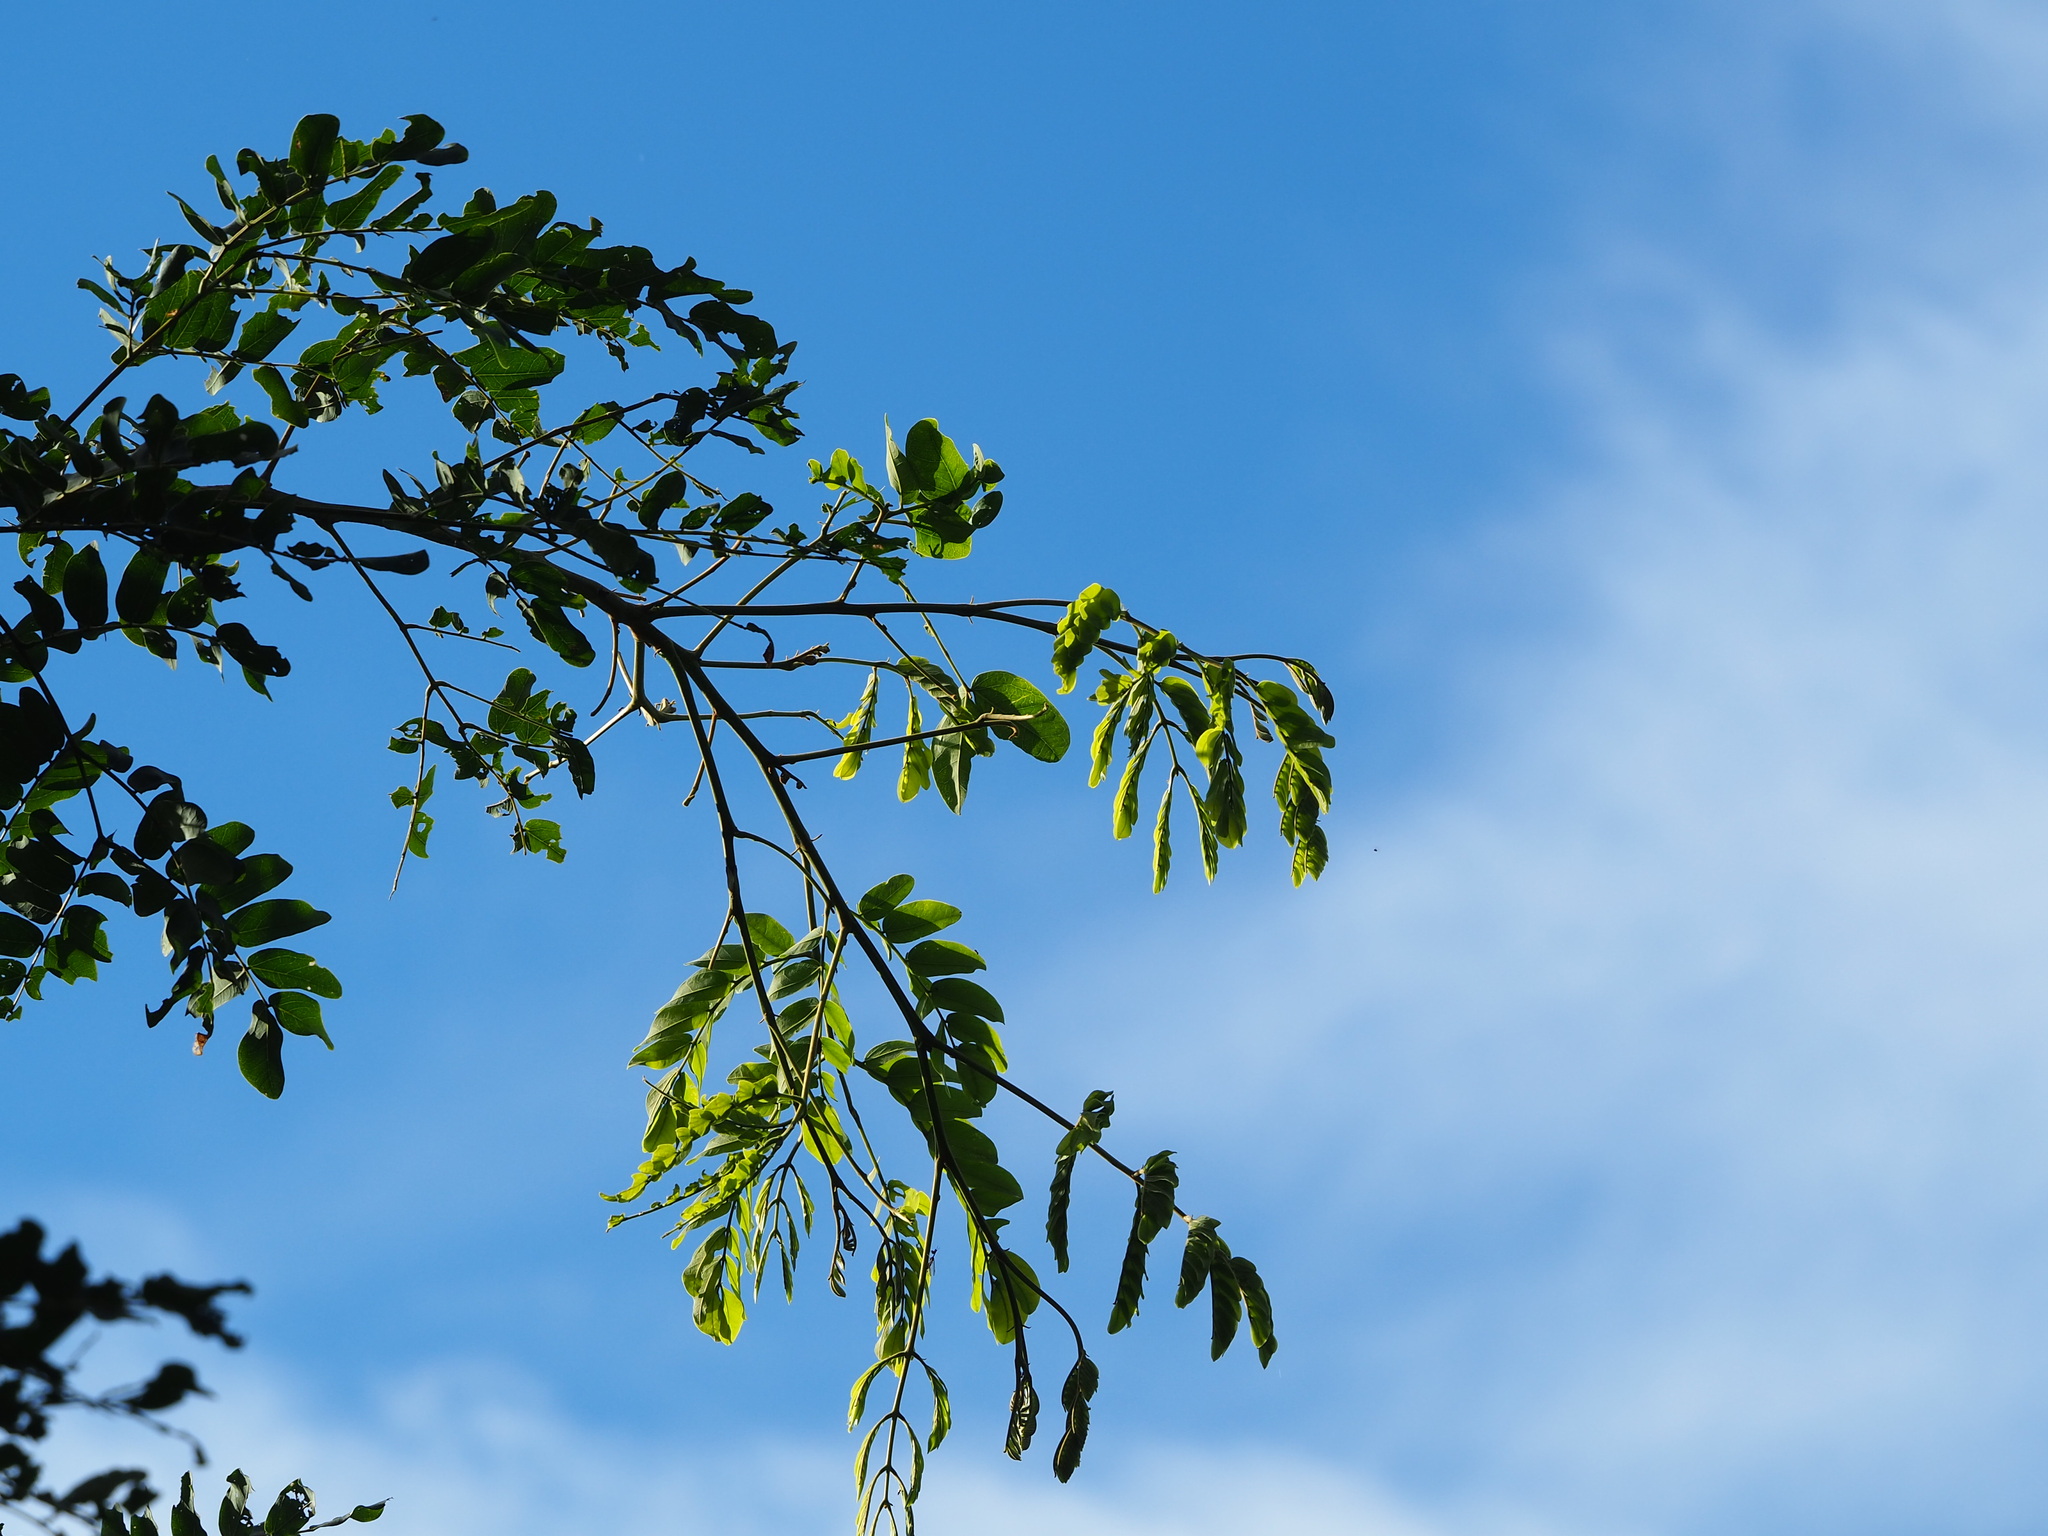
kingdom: Plantae
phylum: Tracheophyta
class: Magnoliopsida
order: Fabales
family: Fabaceae
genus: Albizia
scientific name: Albizia lebbeck
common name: Woman's tongue
